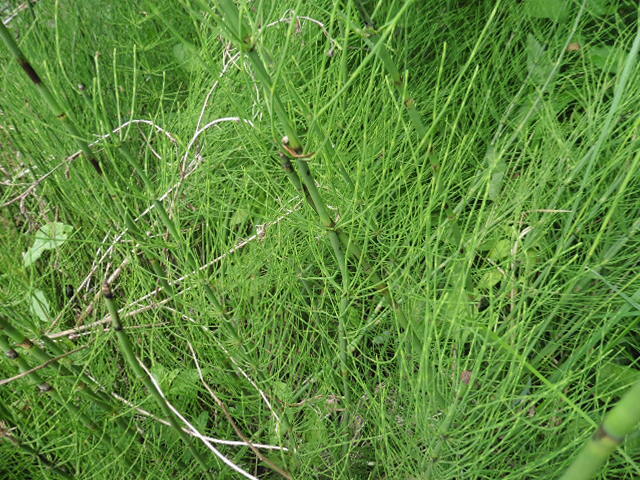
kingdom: Plantae
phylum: Tracheophyta
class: Polypodiopsida
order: Equisetales
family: Equisetaceae
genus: Equisetum
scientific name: Equisetum fluviatile
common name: Water horsetail
